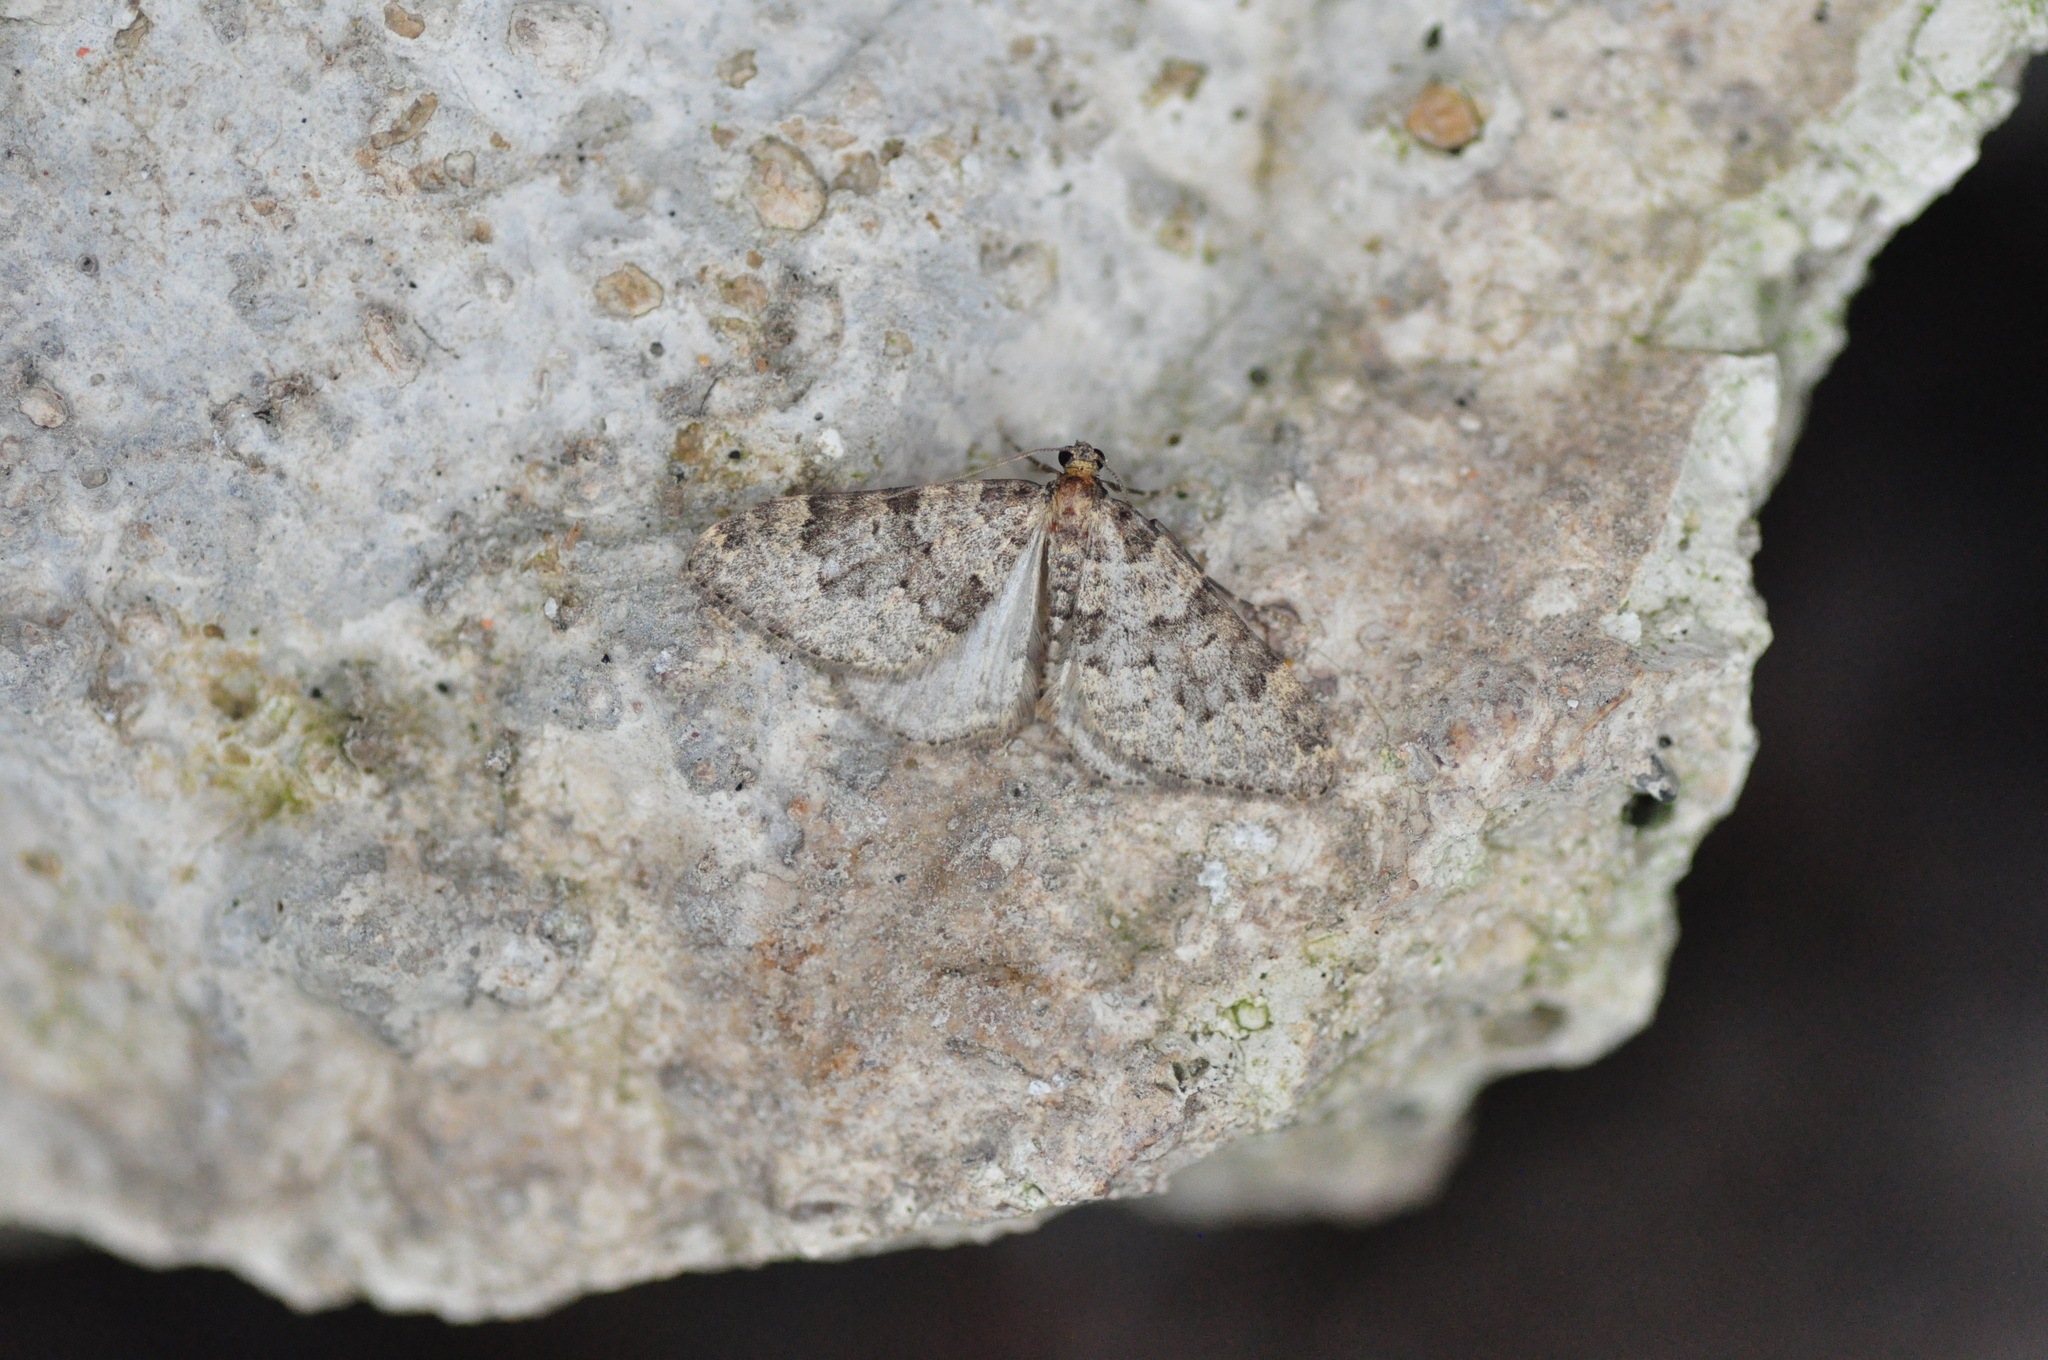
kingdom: Animalia
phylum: Arthropoda
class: Insecta
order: Lepidoptera
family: Geometridae
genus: Nebula
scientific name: Nebula ibericata
